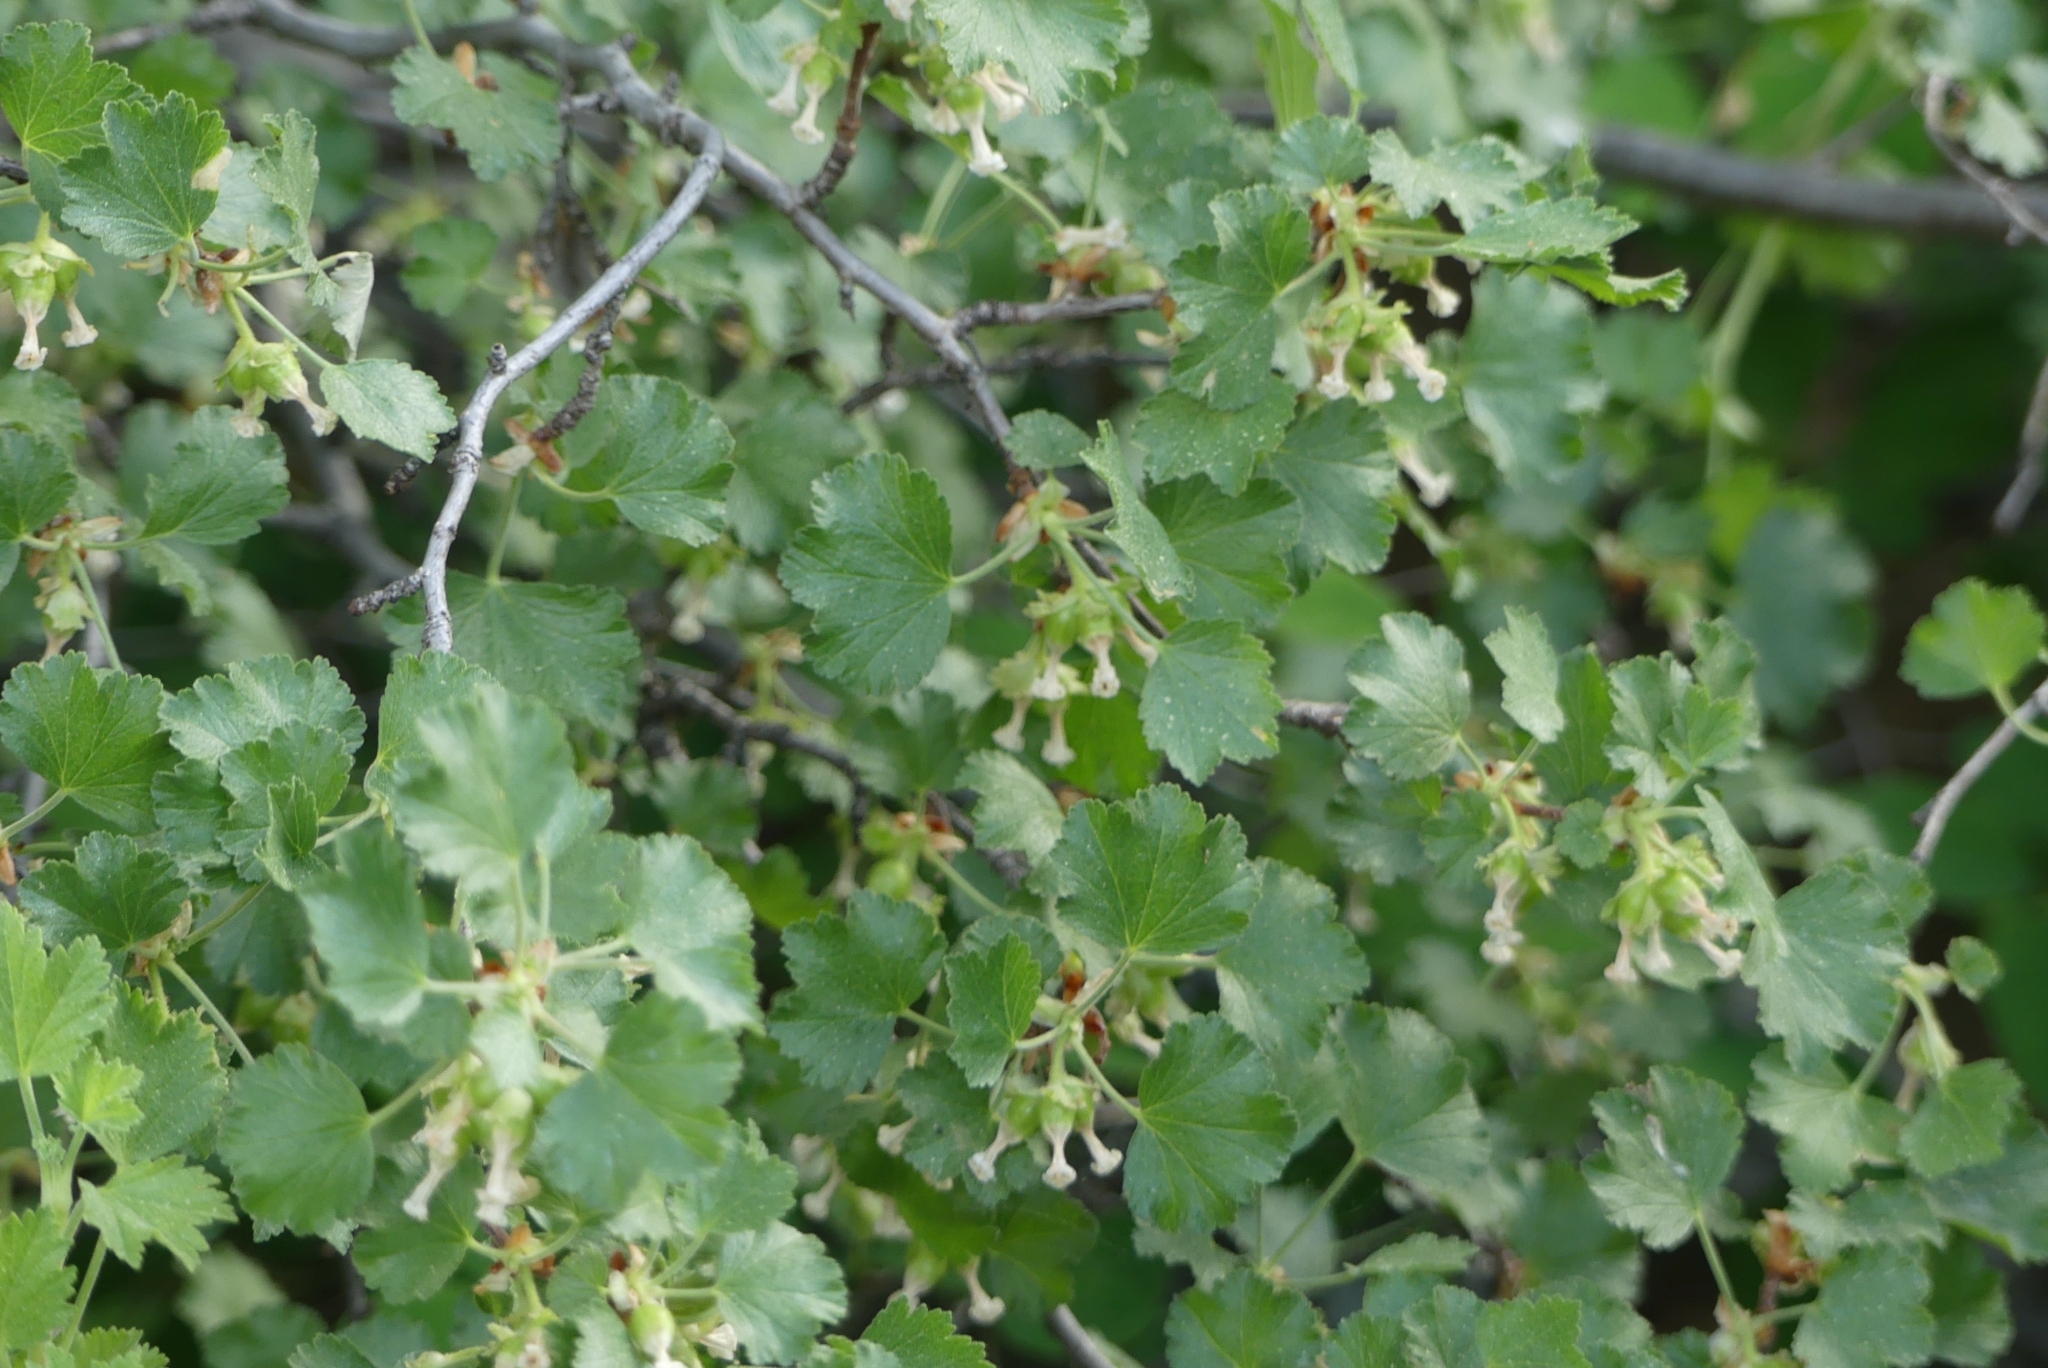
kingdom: Plantae
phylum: Tracheophyta
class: Magnoliopsida
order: Saxifragales
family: Grossulariaceae
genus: Ribes
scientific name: Ribes cereum
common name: Wax currant
